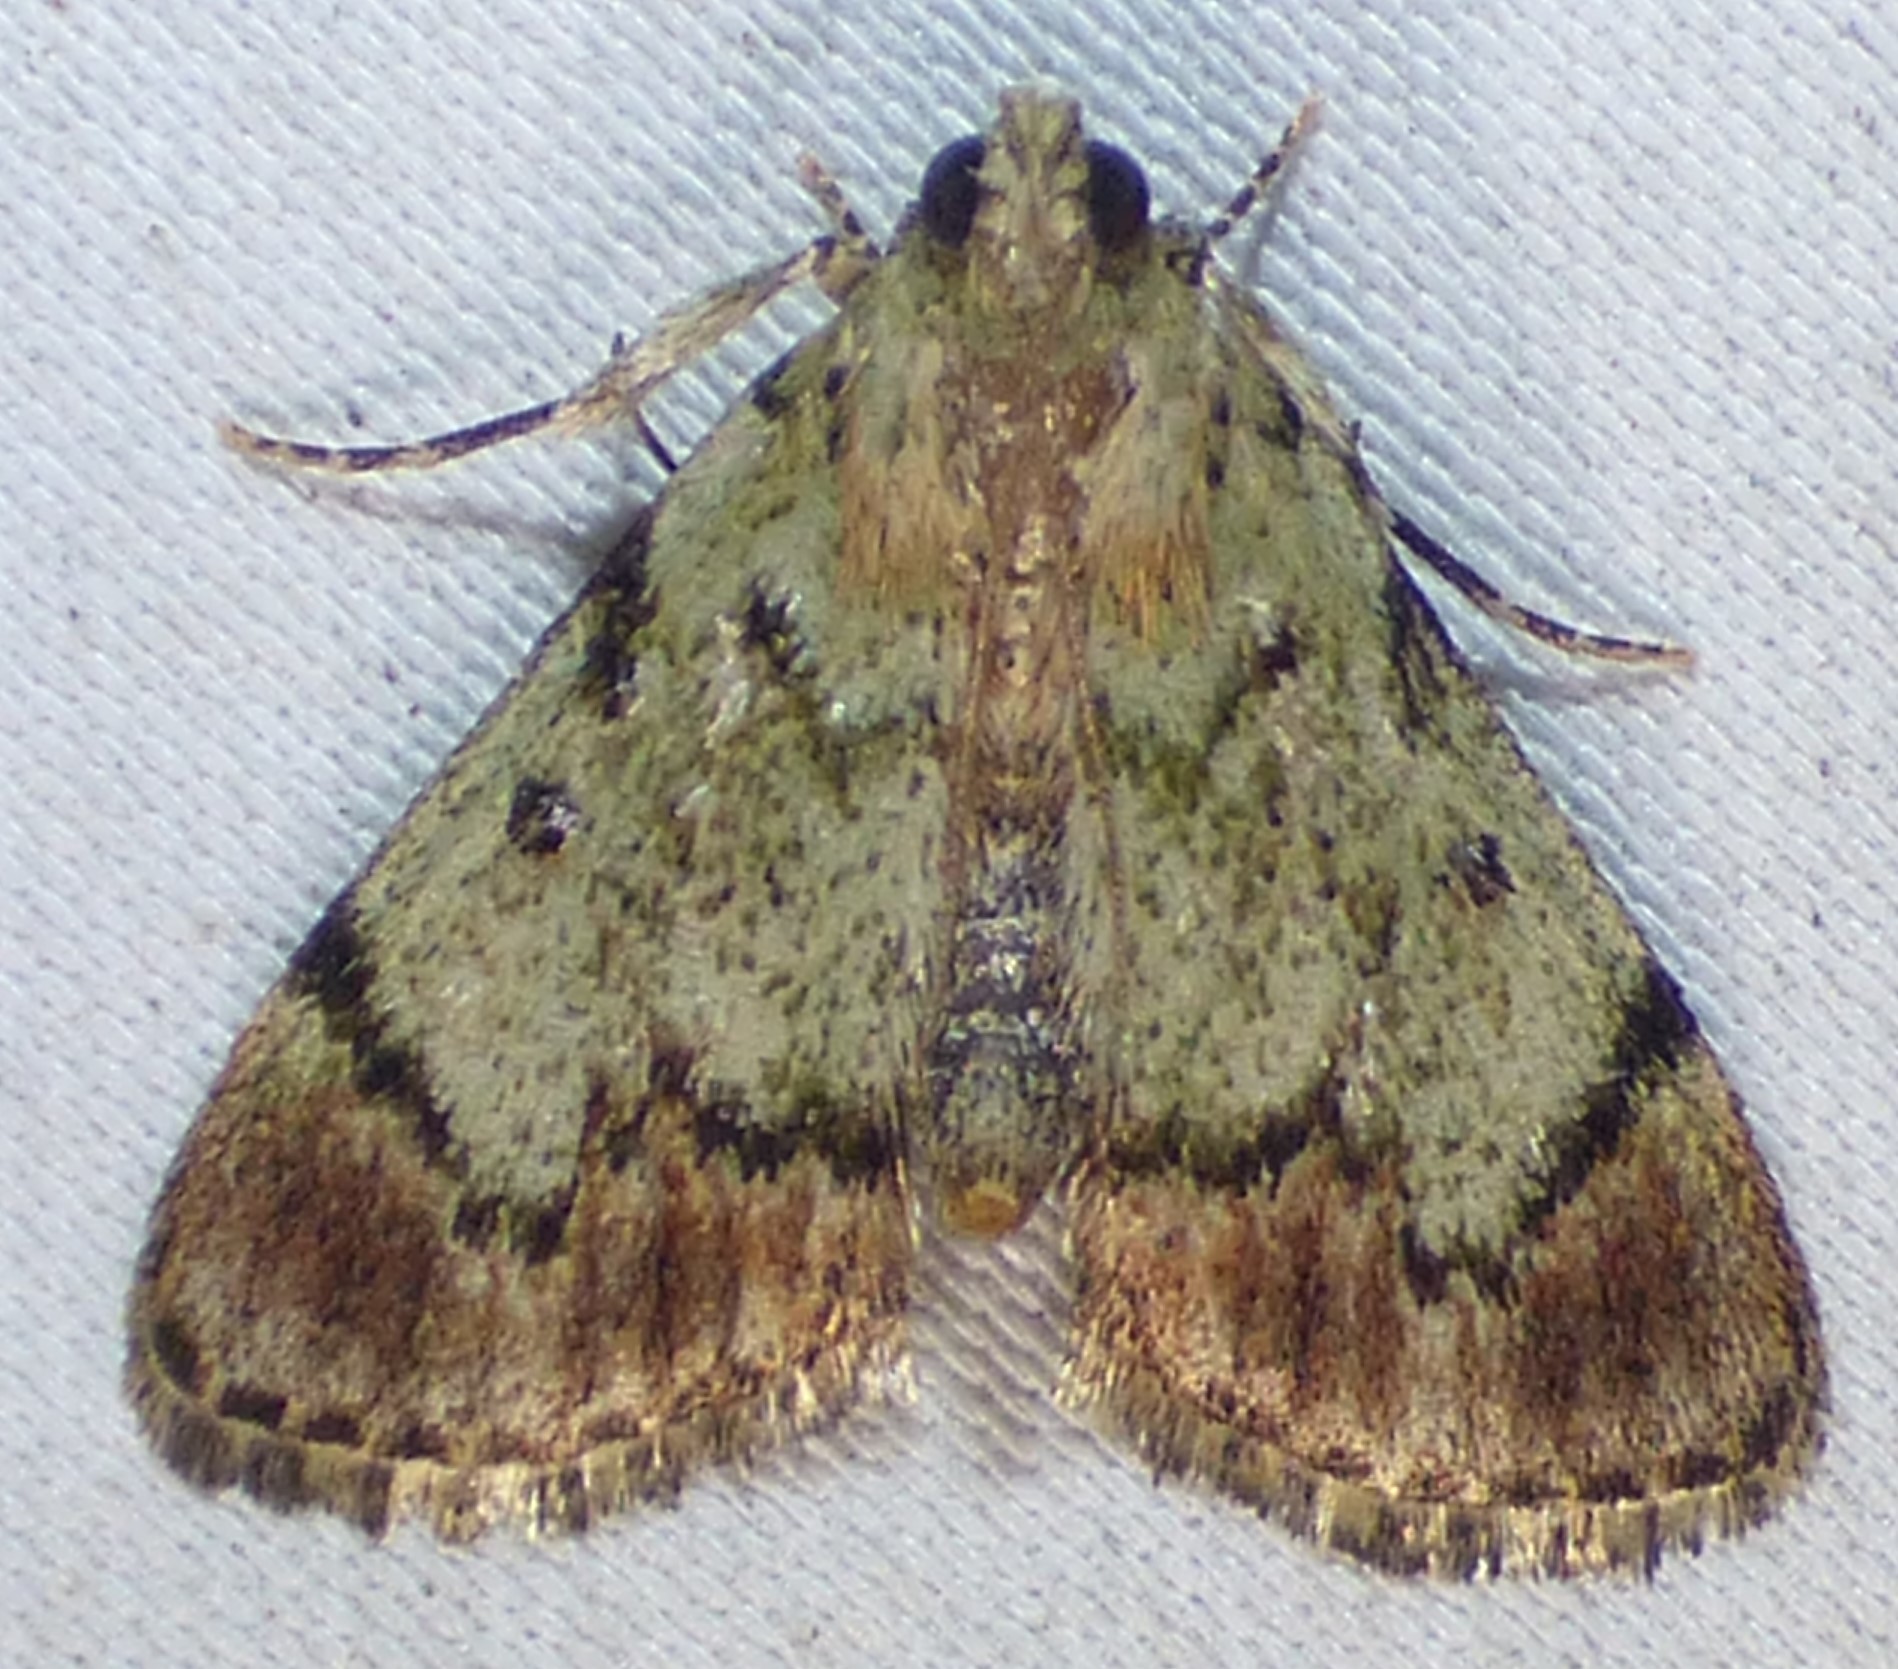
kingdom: Animalia
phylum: Arthropoda
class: Insecta
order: Lepidoptera
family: Pyralidae
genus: Epipaschia
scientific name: Epipaschia superatalis
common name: Dimorphic macalla moth
